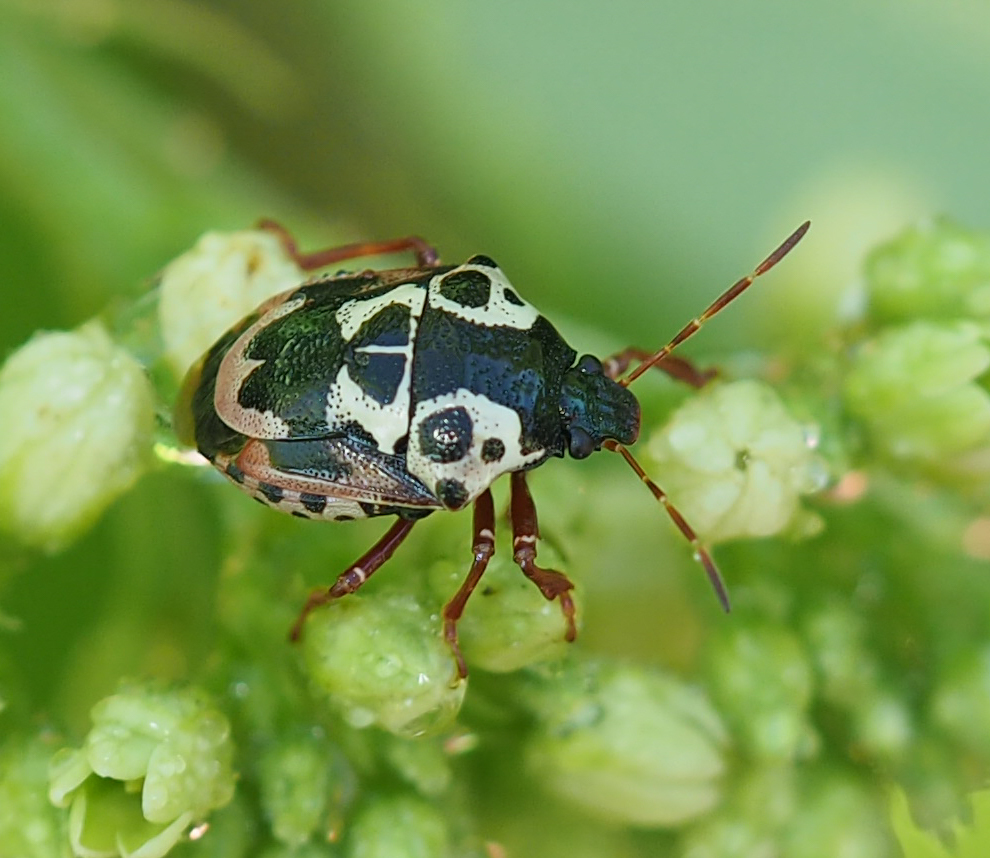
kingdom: Animalia
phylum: Arthropoda
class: Insecta
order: Hemiptera
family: Pentatomidae
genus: Stiretrus
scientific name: Stiretrus anchorago
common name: Anchor stink bug
